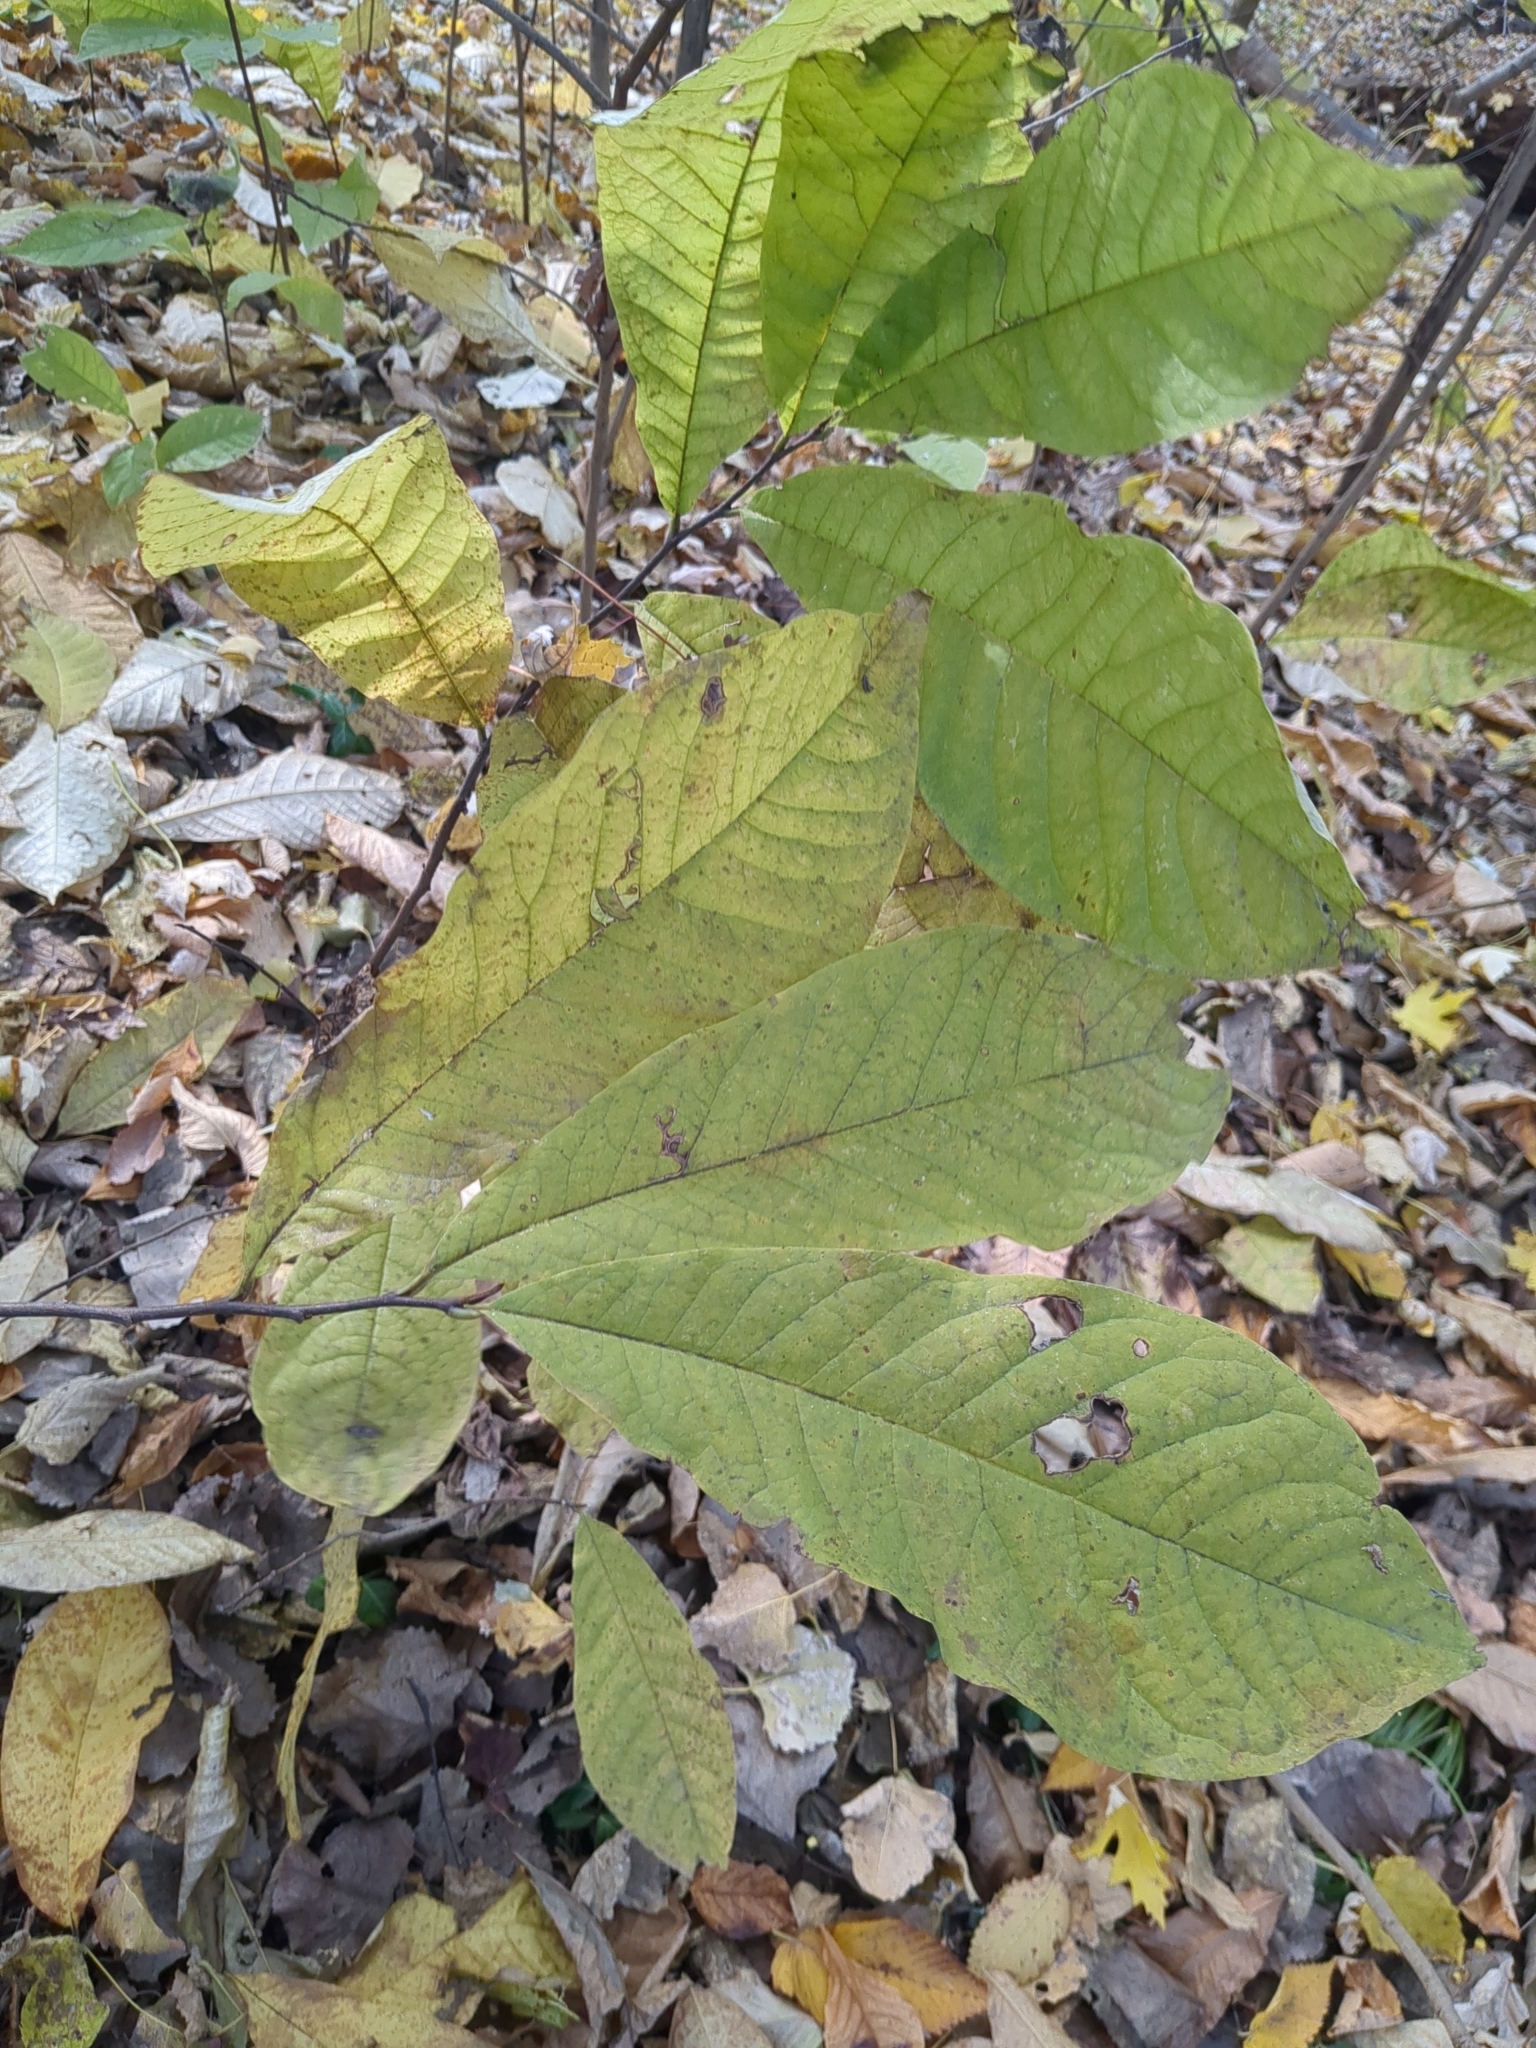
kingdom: Plantae
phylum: Tracheophyta
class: Magnoliopsida
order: Magnoliales
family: Annonaceae
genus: Asimina
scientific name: Asimina triloba
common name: Dog-banana
